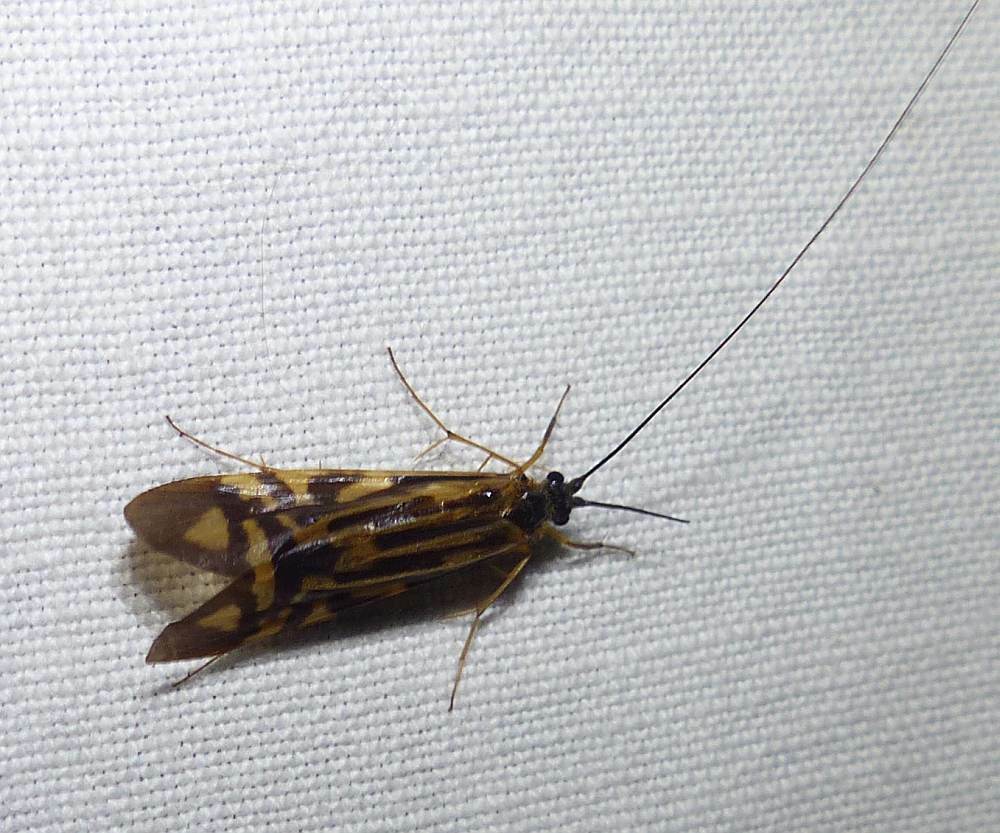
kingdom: Animalia
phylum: Arthropoda
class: Insecta
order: Trichoptera
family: Hydropsychidae
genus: Macrostemum
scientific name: Macrostemum zebratum
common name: Zebra caddisfly
